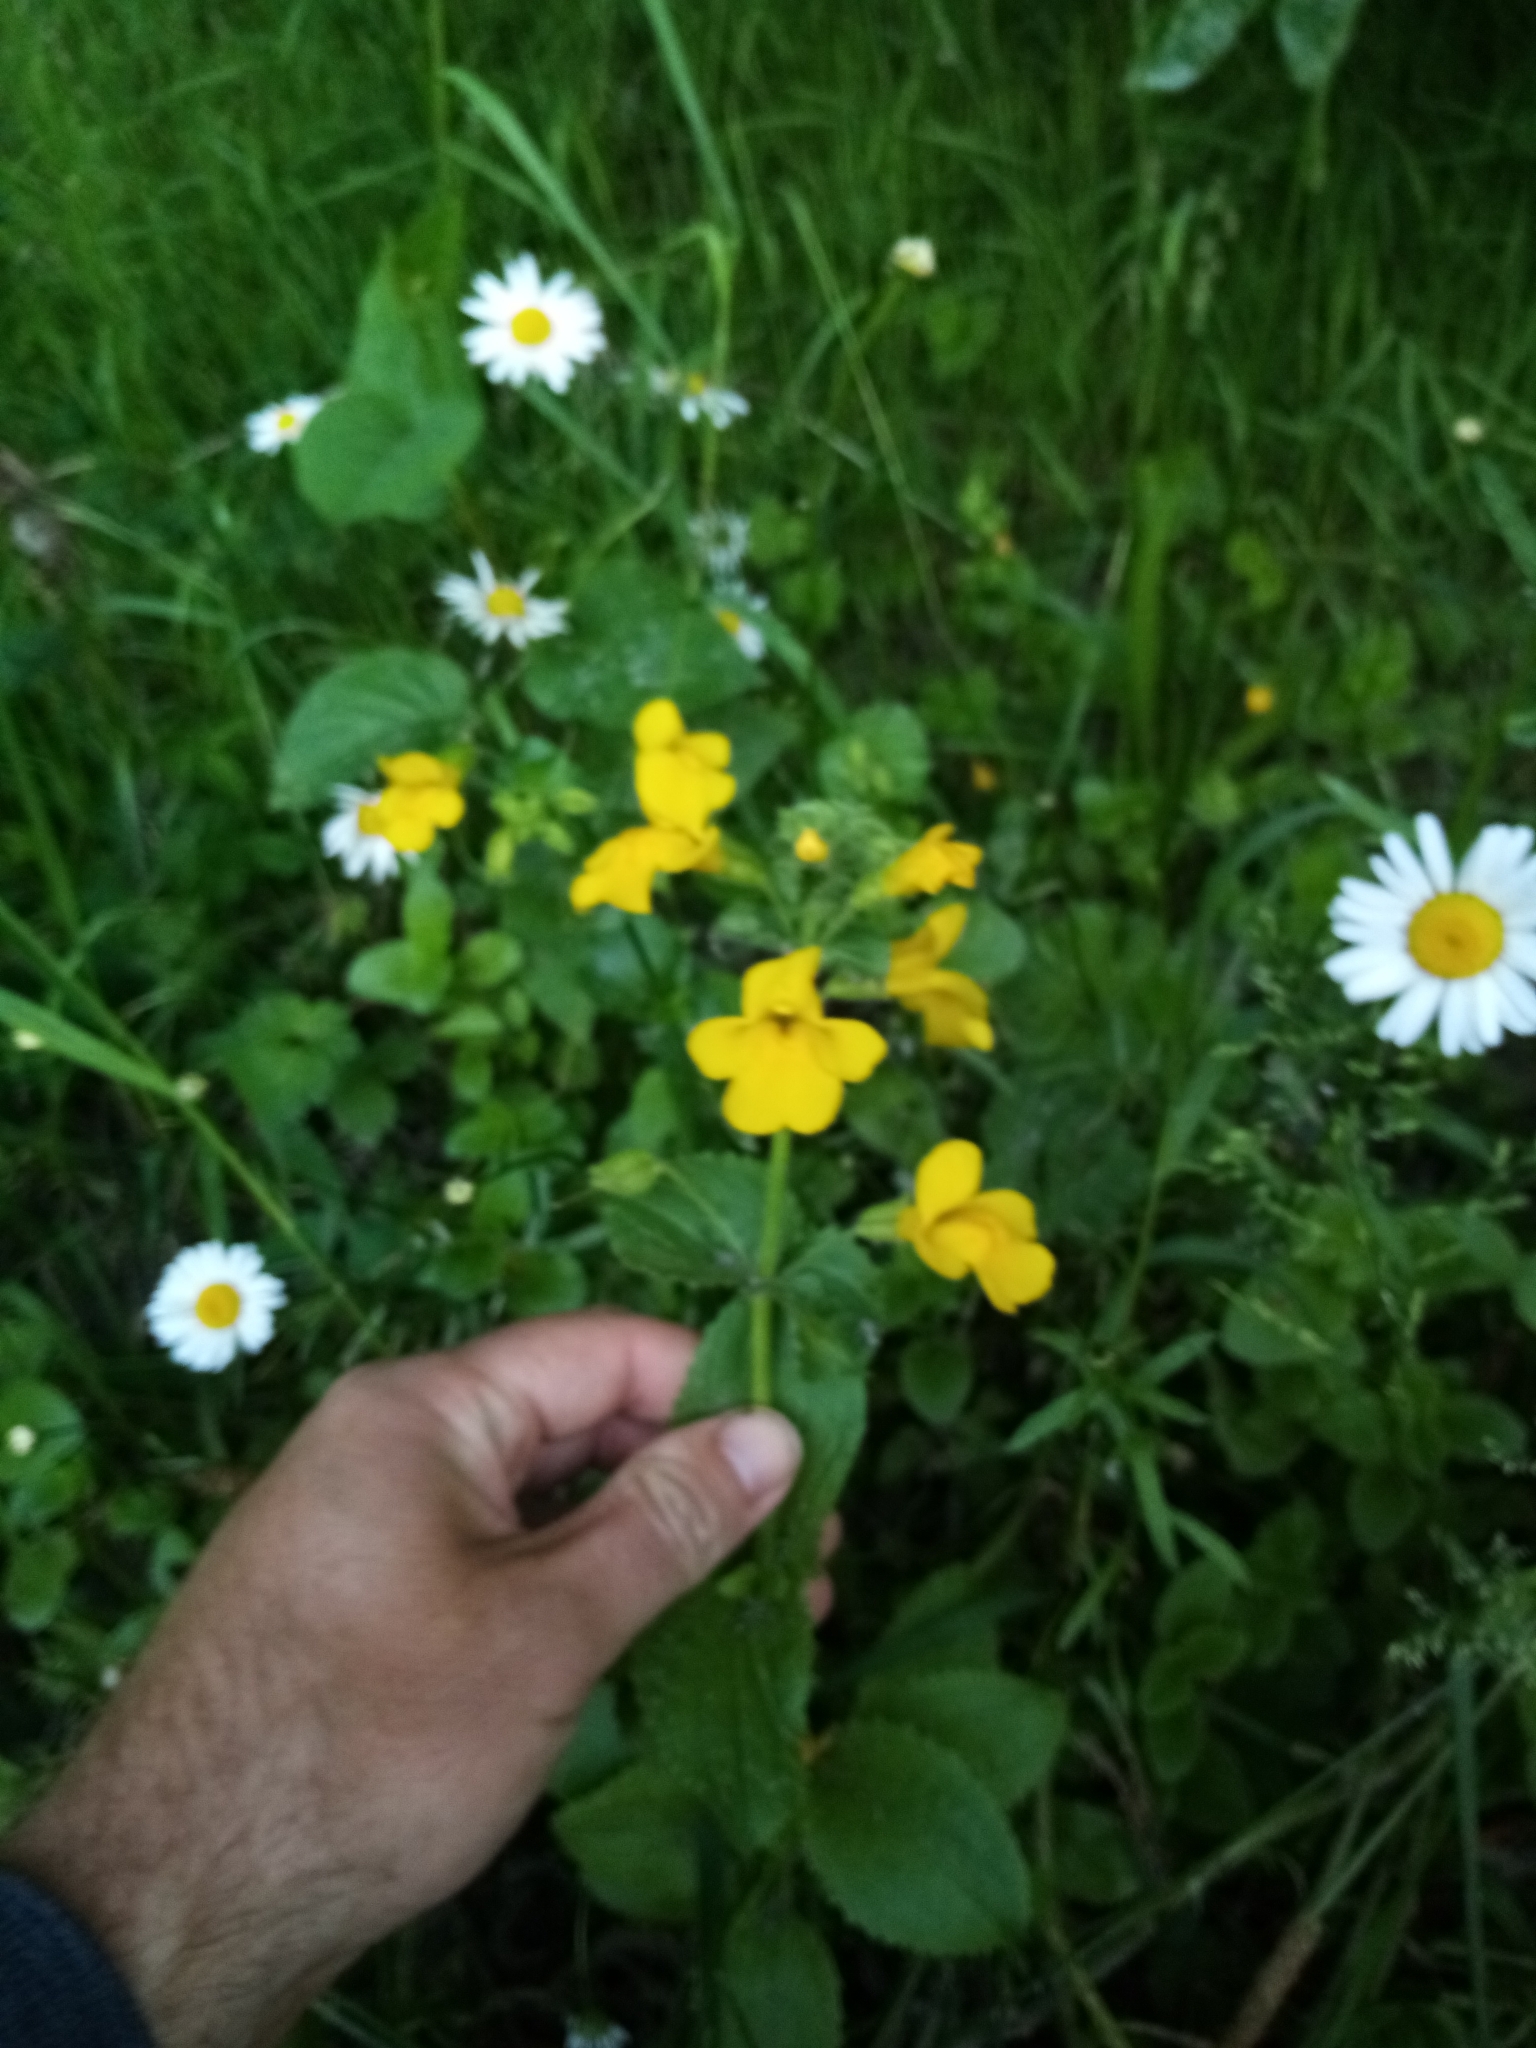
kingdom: Plantae
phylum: Tracheophyta
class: Magnoliopsida
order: Lamiales
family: Phrymaceae
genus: Erythranthe
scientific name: Erythranthe guttata
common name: Monkeyflower
